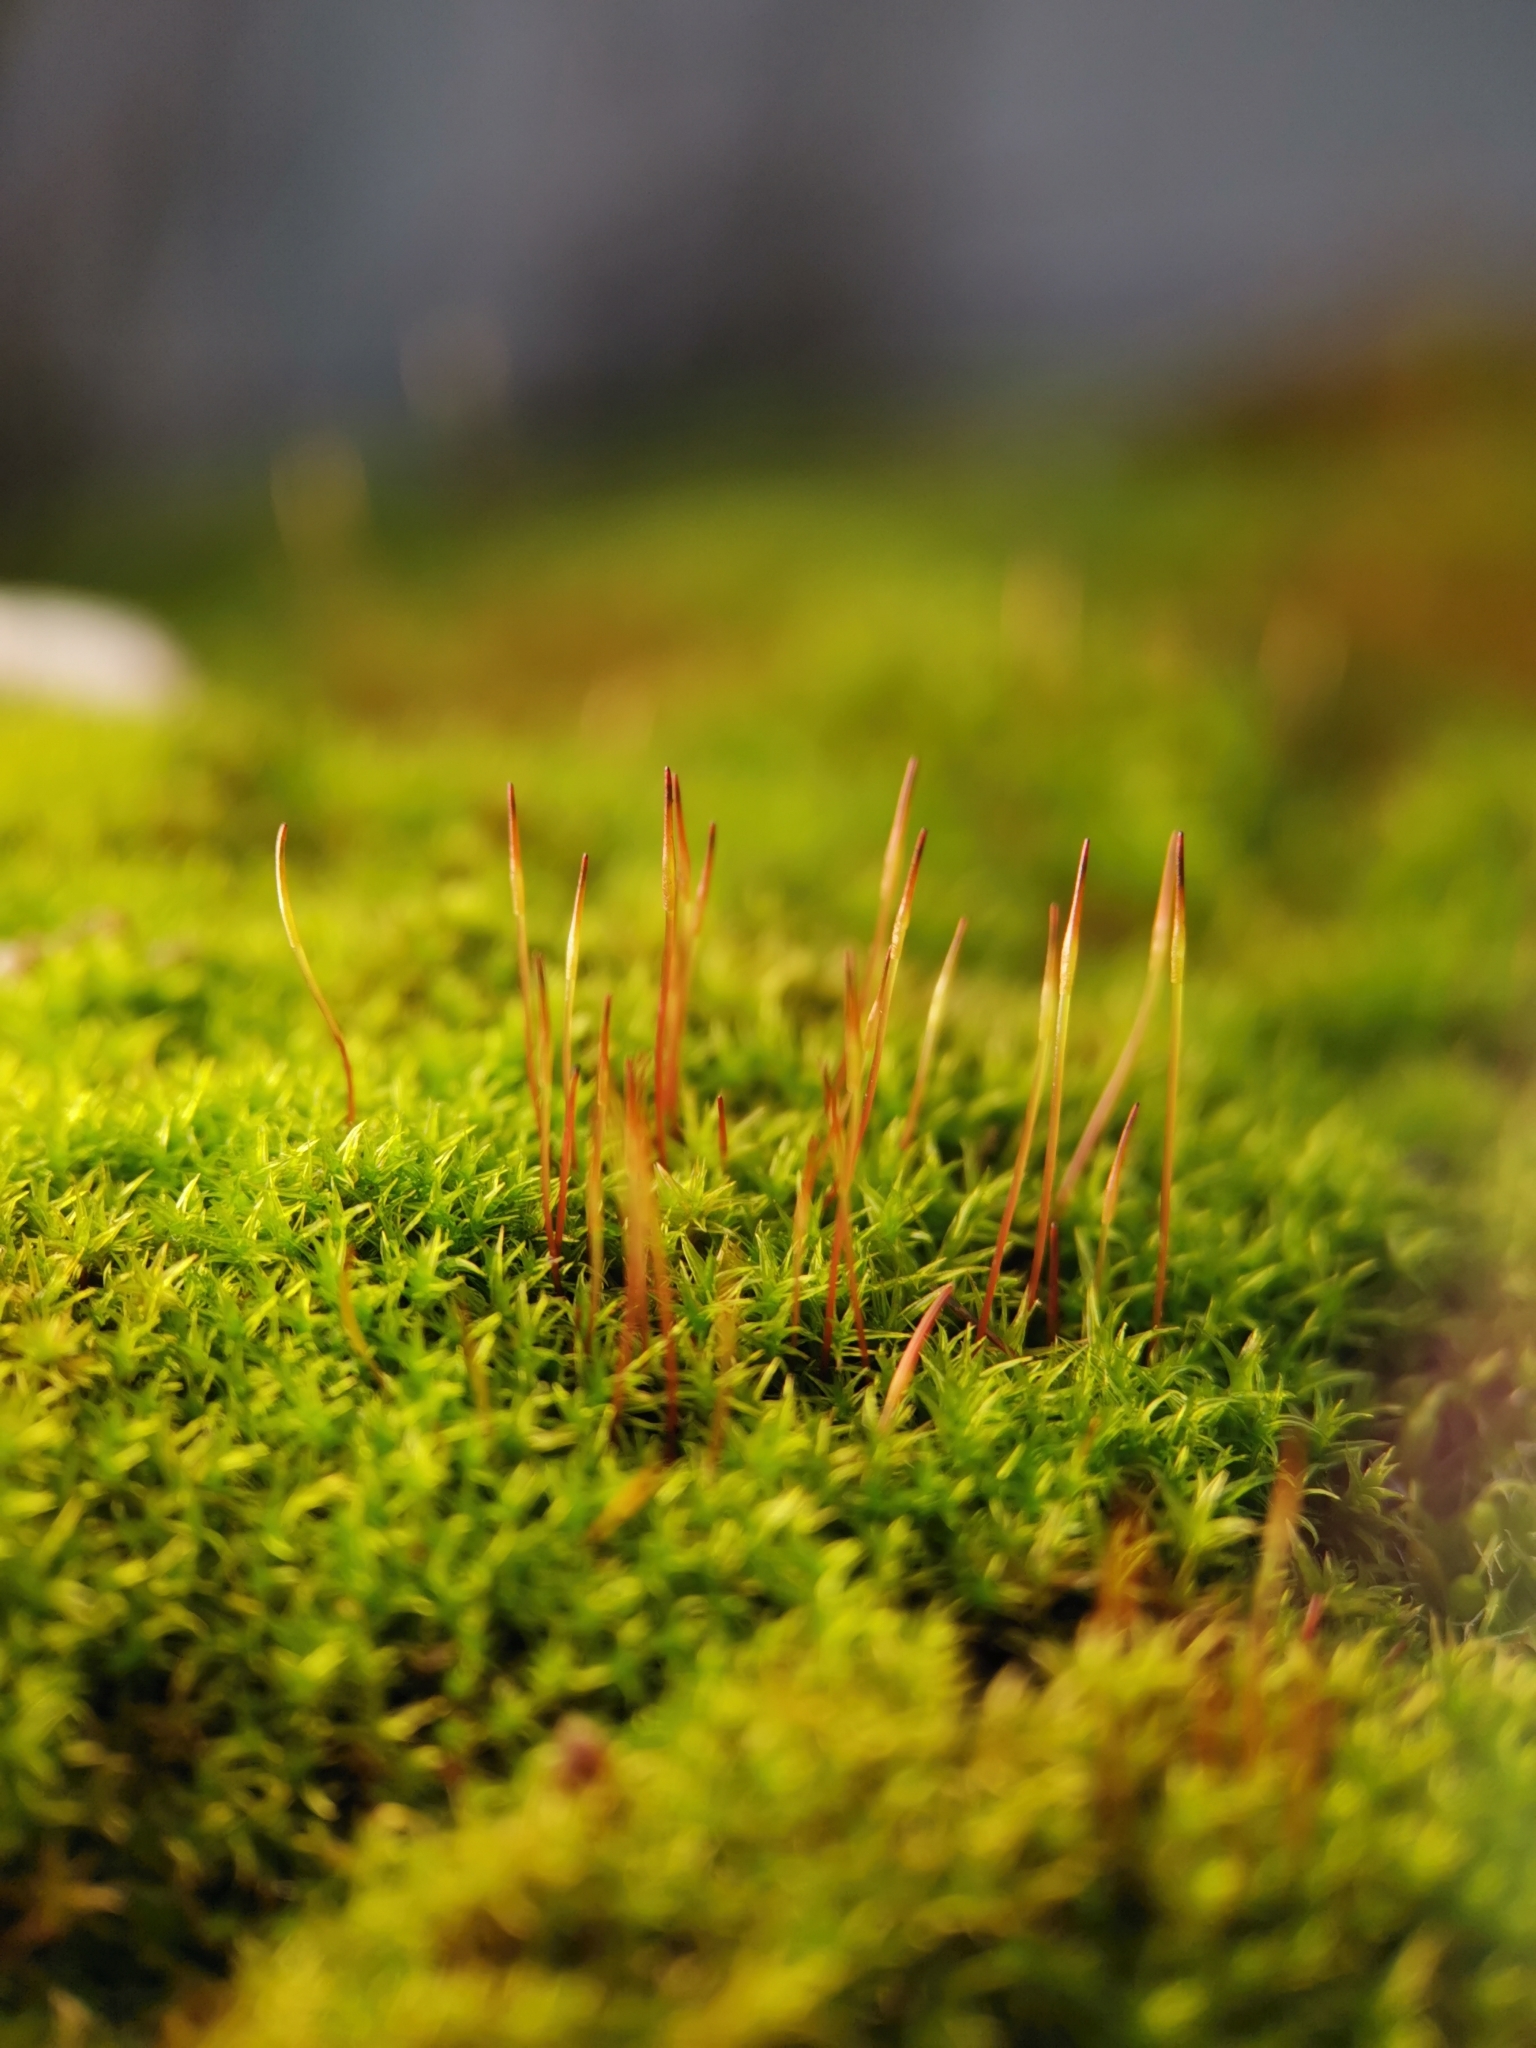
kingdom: Plantae
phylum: Bryophyta
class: Bryopsida
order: Dicranales
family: Ditrichaceae
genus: Ceratodon
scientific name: Ceratodon purpureus
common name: Redshank
